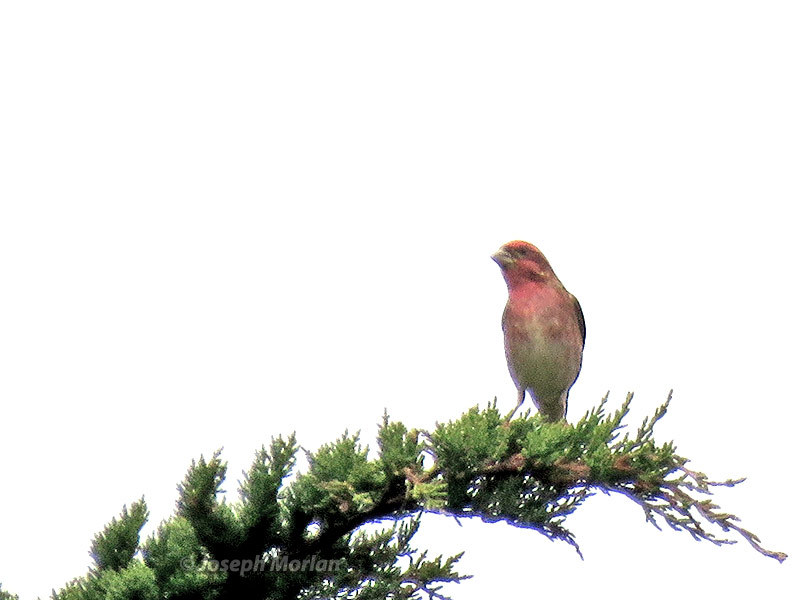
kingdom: Animalia
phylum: Chordata
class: Aves
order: Passeriformes
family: Fringillidae
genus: Haemorhous
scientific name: Haemorhous purpureus
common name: Purple finch
